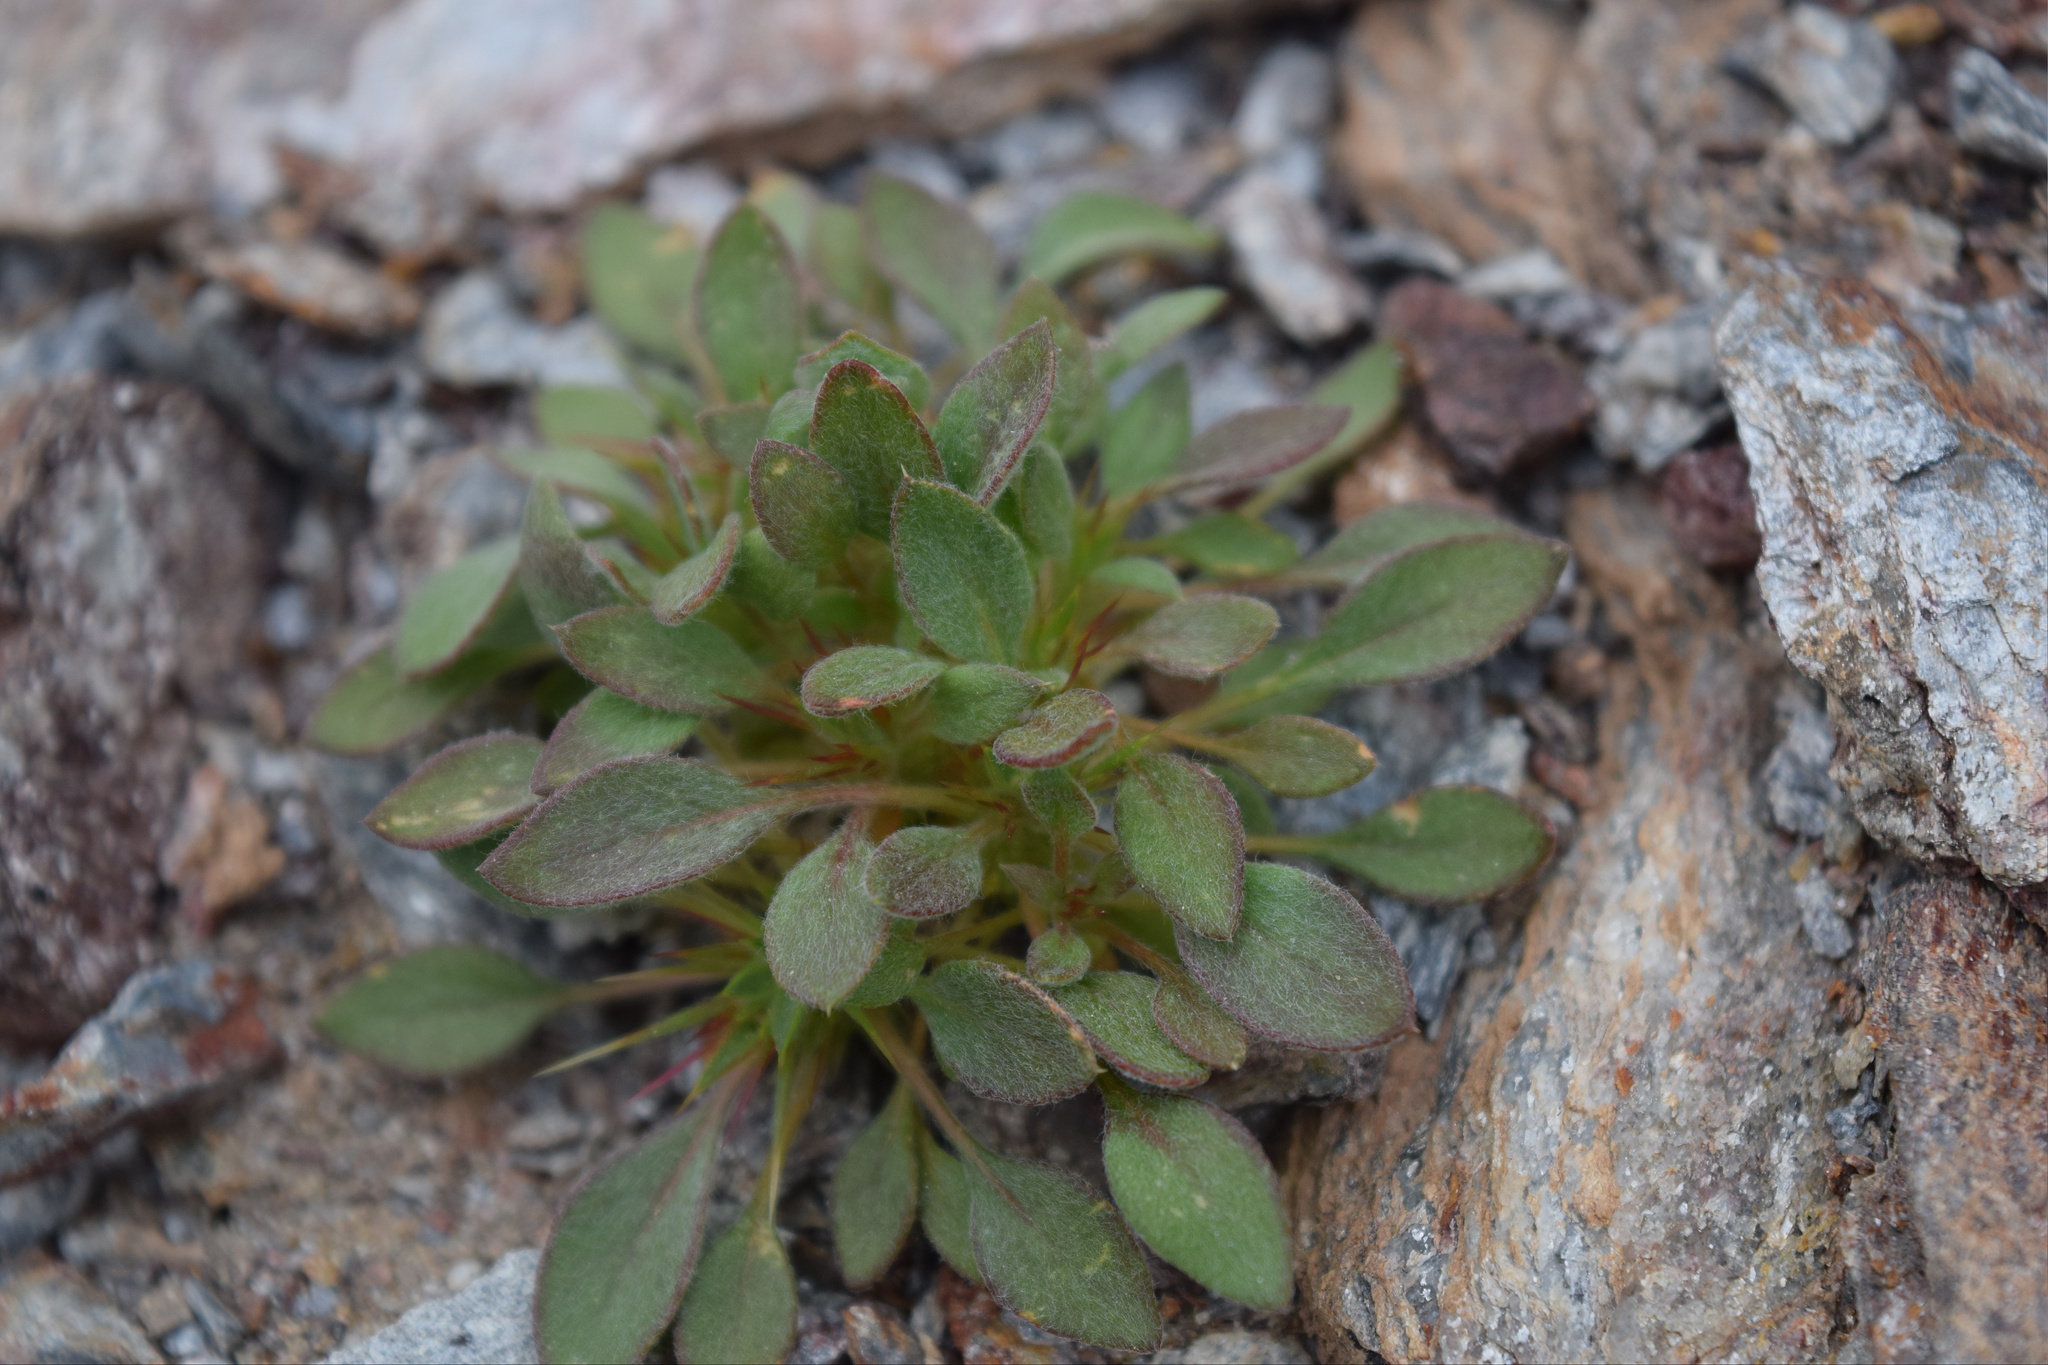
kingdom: Plantae
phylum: Tracheophyta
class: Magnoliopsida
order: Caryophyllales
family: Polygonaceae
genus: Chorizanthe
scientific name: Chorizanthe rigida
